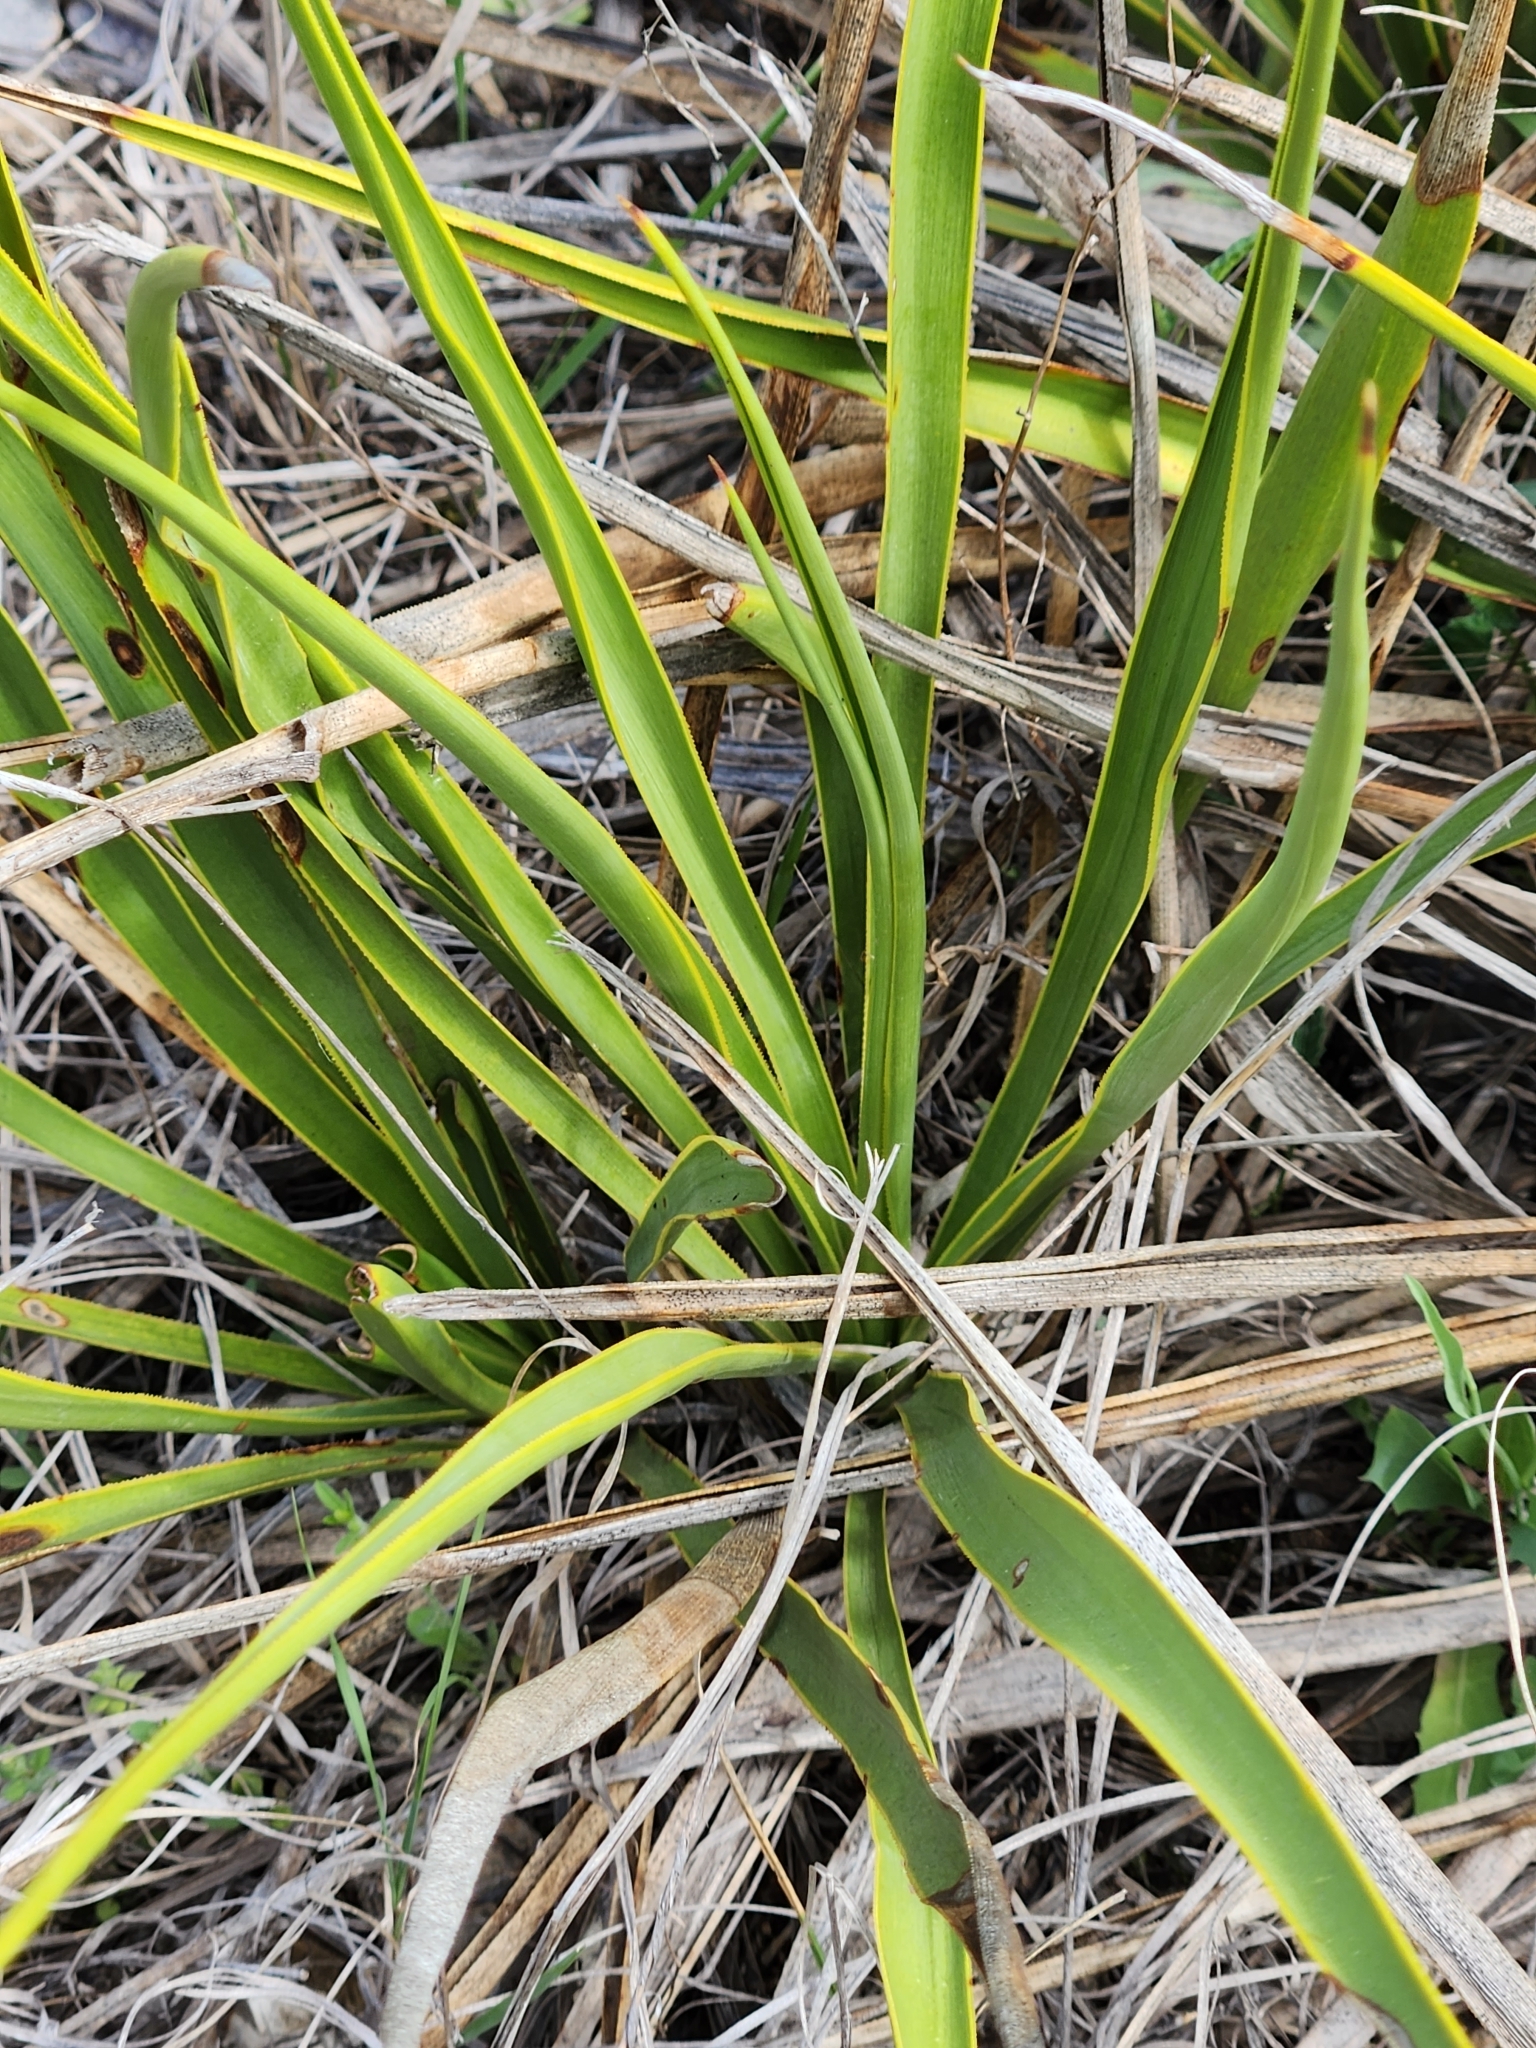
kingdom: Plantae
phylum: Tracheophyta
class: Liliopsida
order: Asparagales
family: Asparagaceae
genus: Yucca
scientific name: Yucca rupicola
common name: Twisted-leaf spanish-dagger
